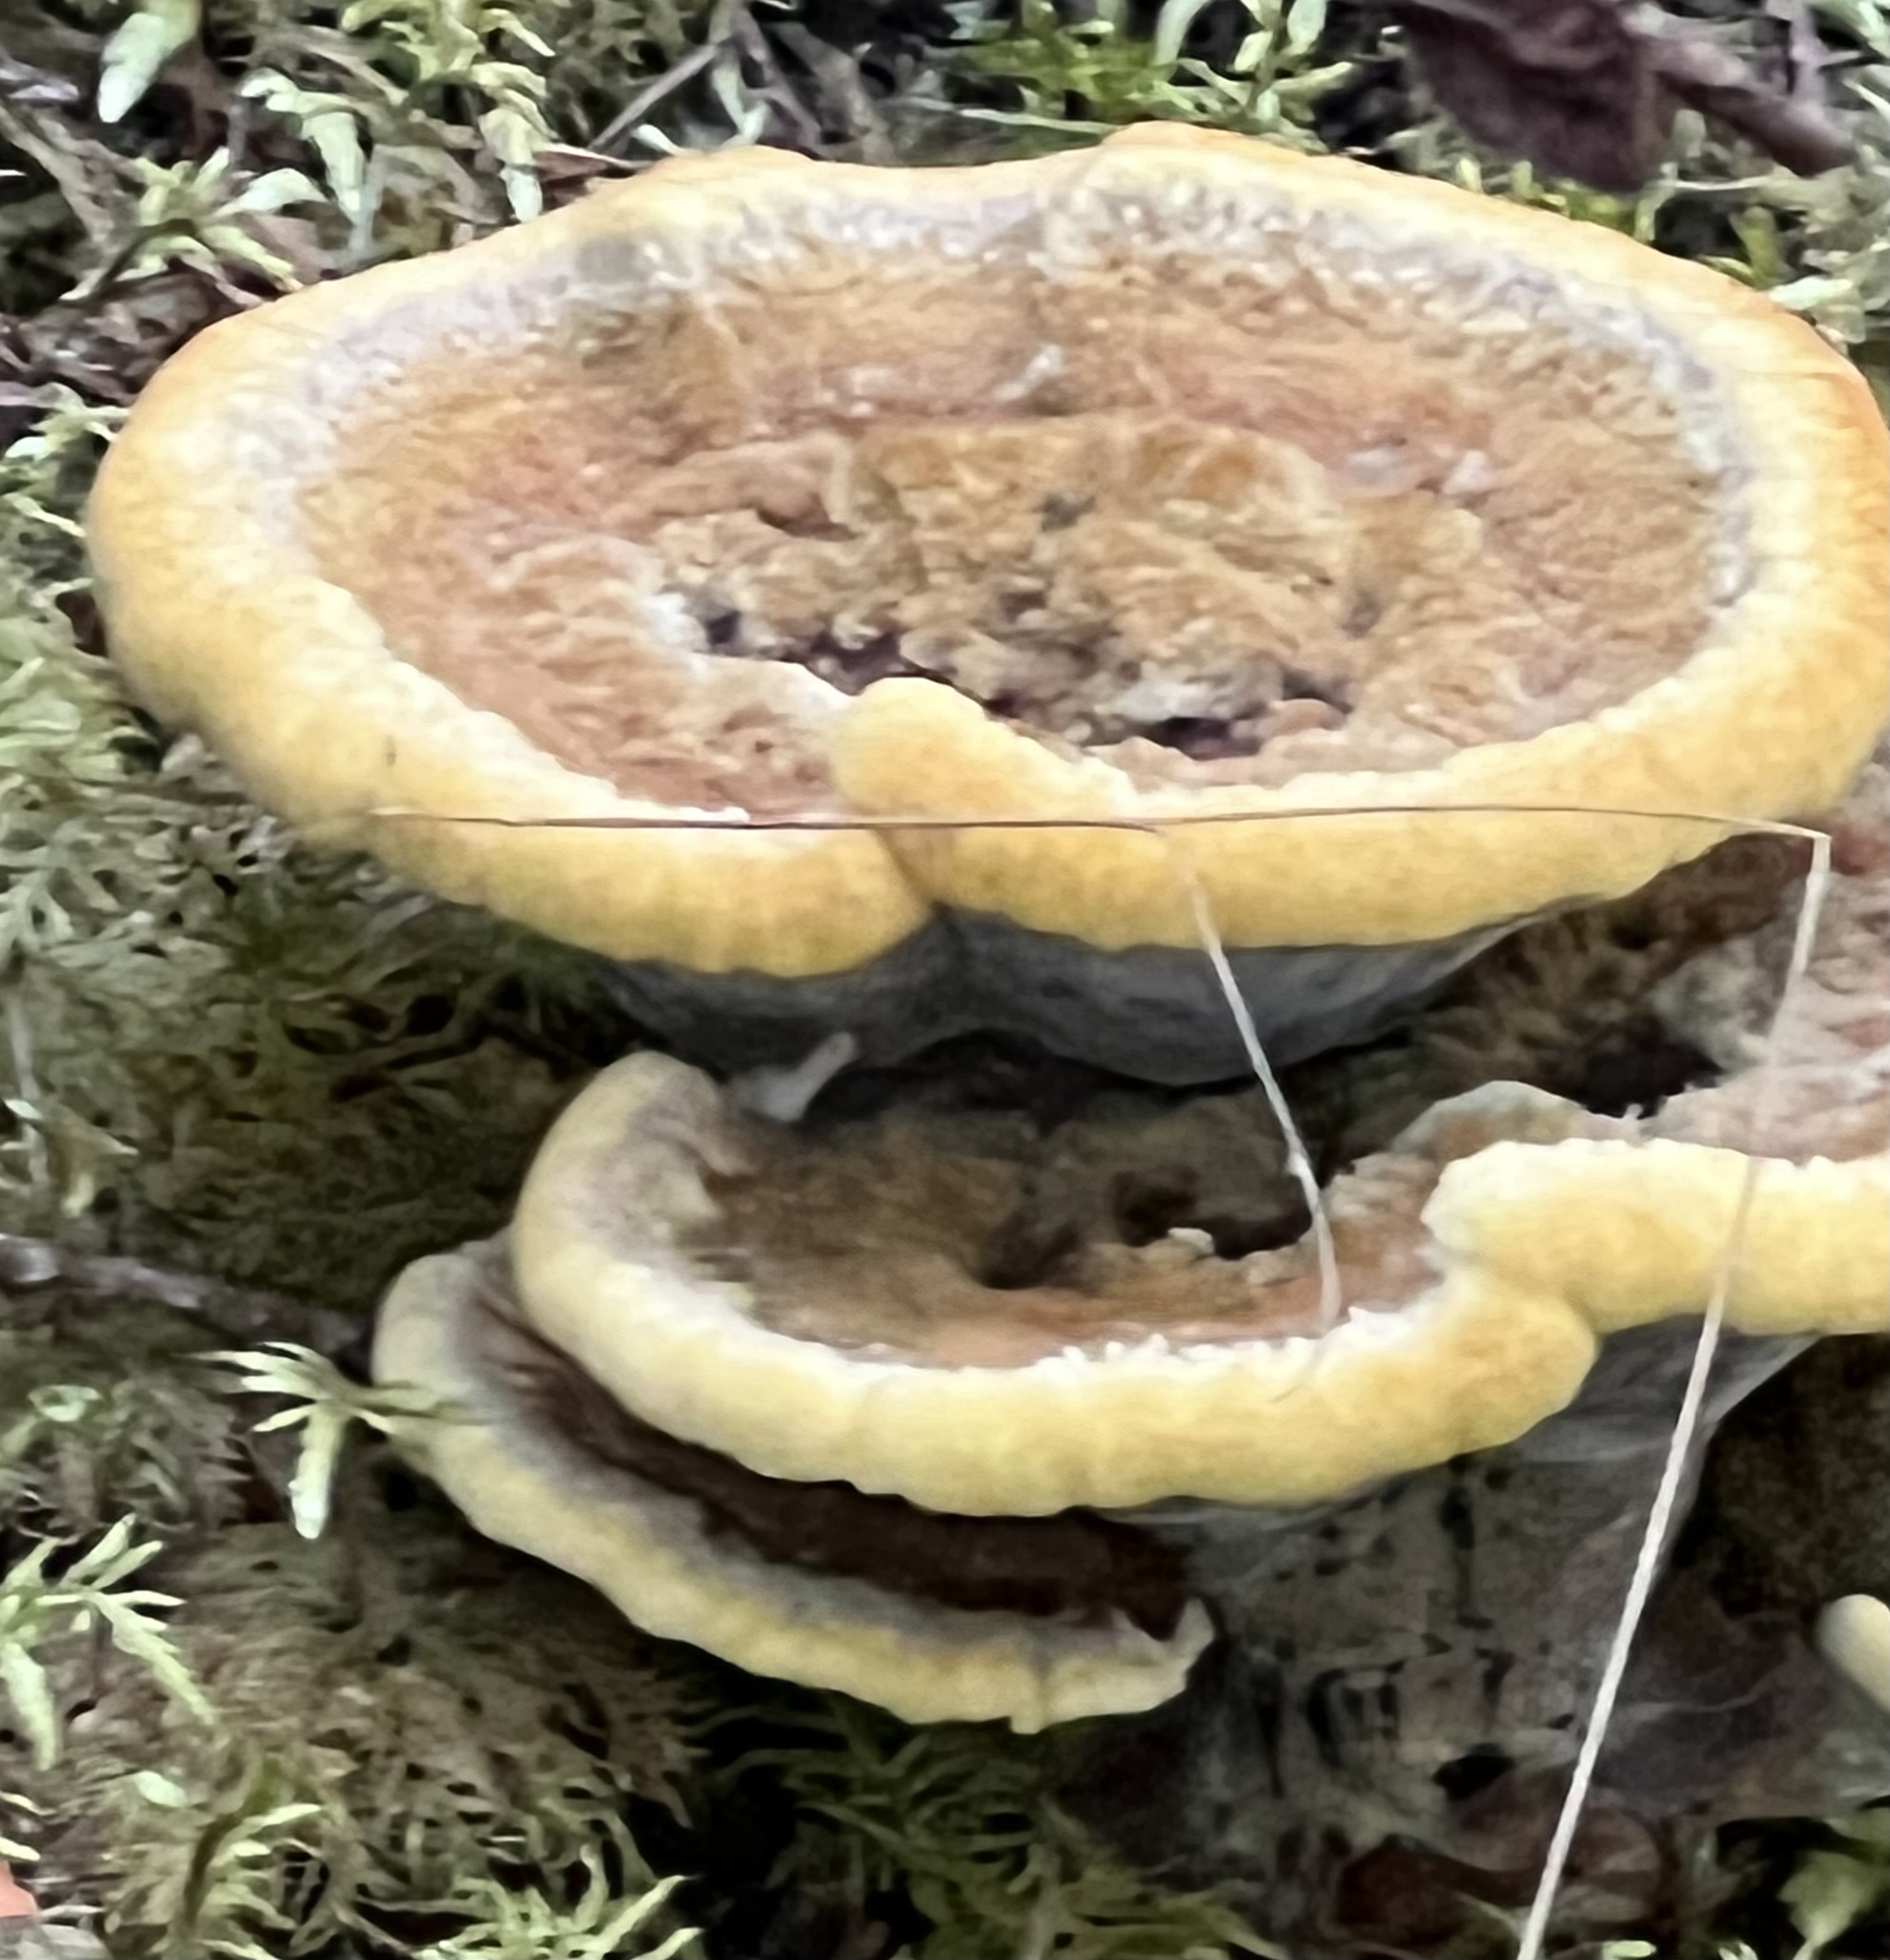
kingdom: Fungi
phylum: Basidiomycota
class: Agaricomycetes
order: Polyporales
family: Laetiporaceae
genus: Phaeolus
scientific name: Phaeolus schweinitzii
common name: Dyer's mazegill
